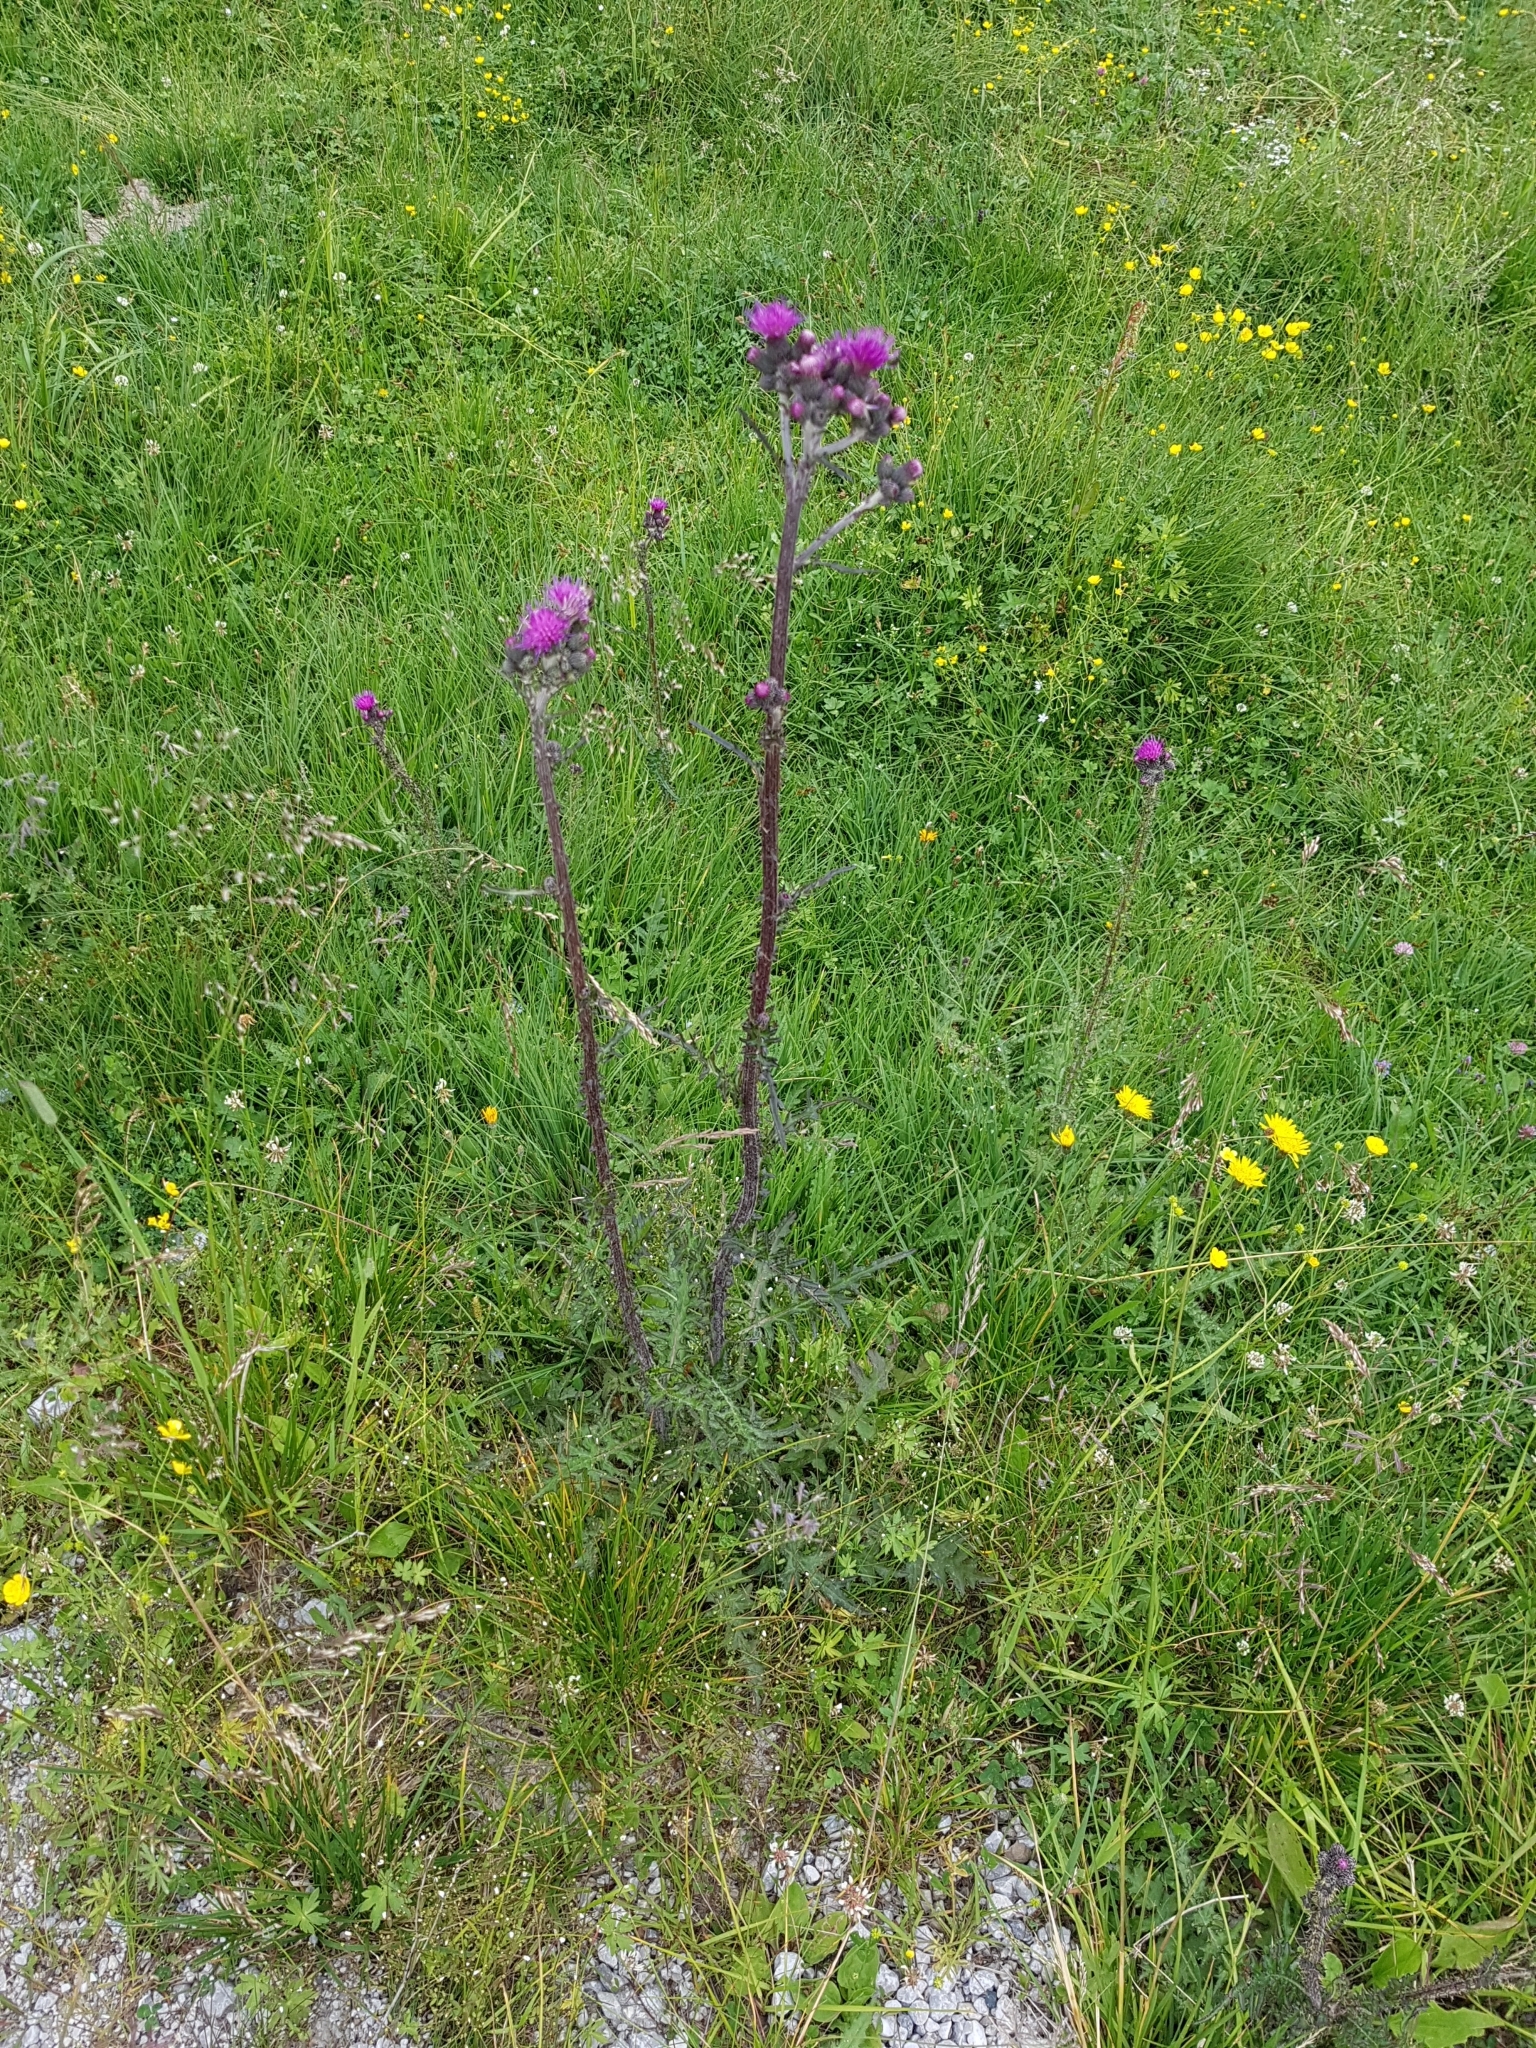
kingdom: Plantae
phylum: Tracheophyta
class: Magnoliopsida
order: Asterales
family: Asteraceae
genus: Cirsium
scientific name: Cirsium palustre
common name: Marsh thistle
